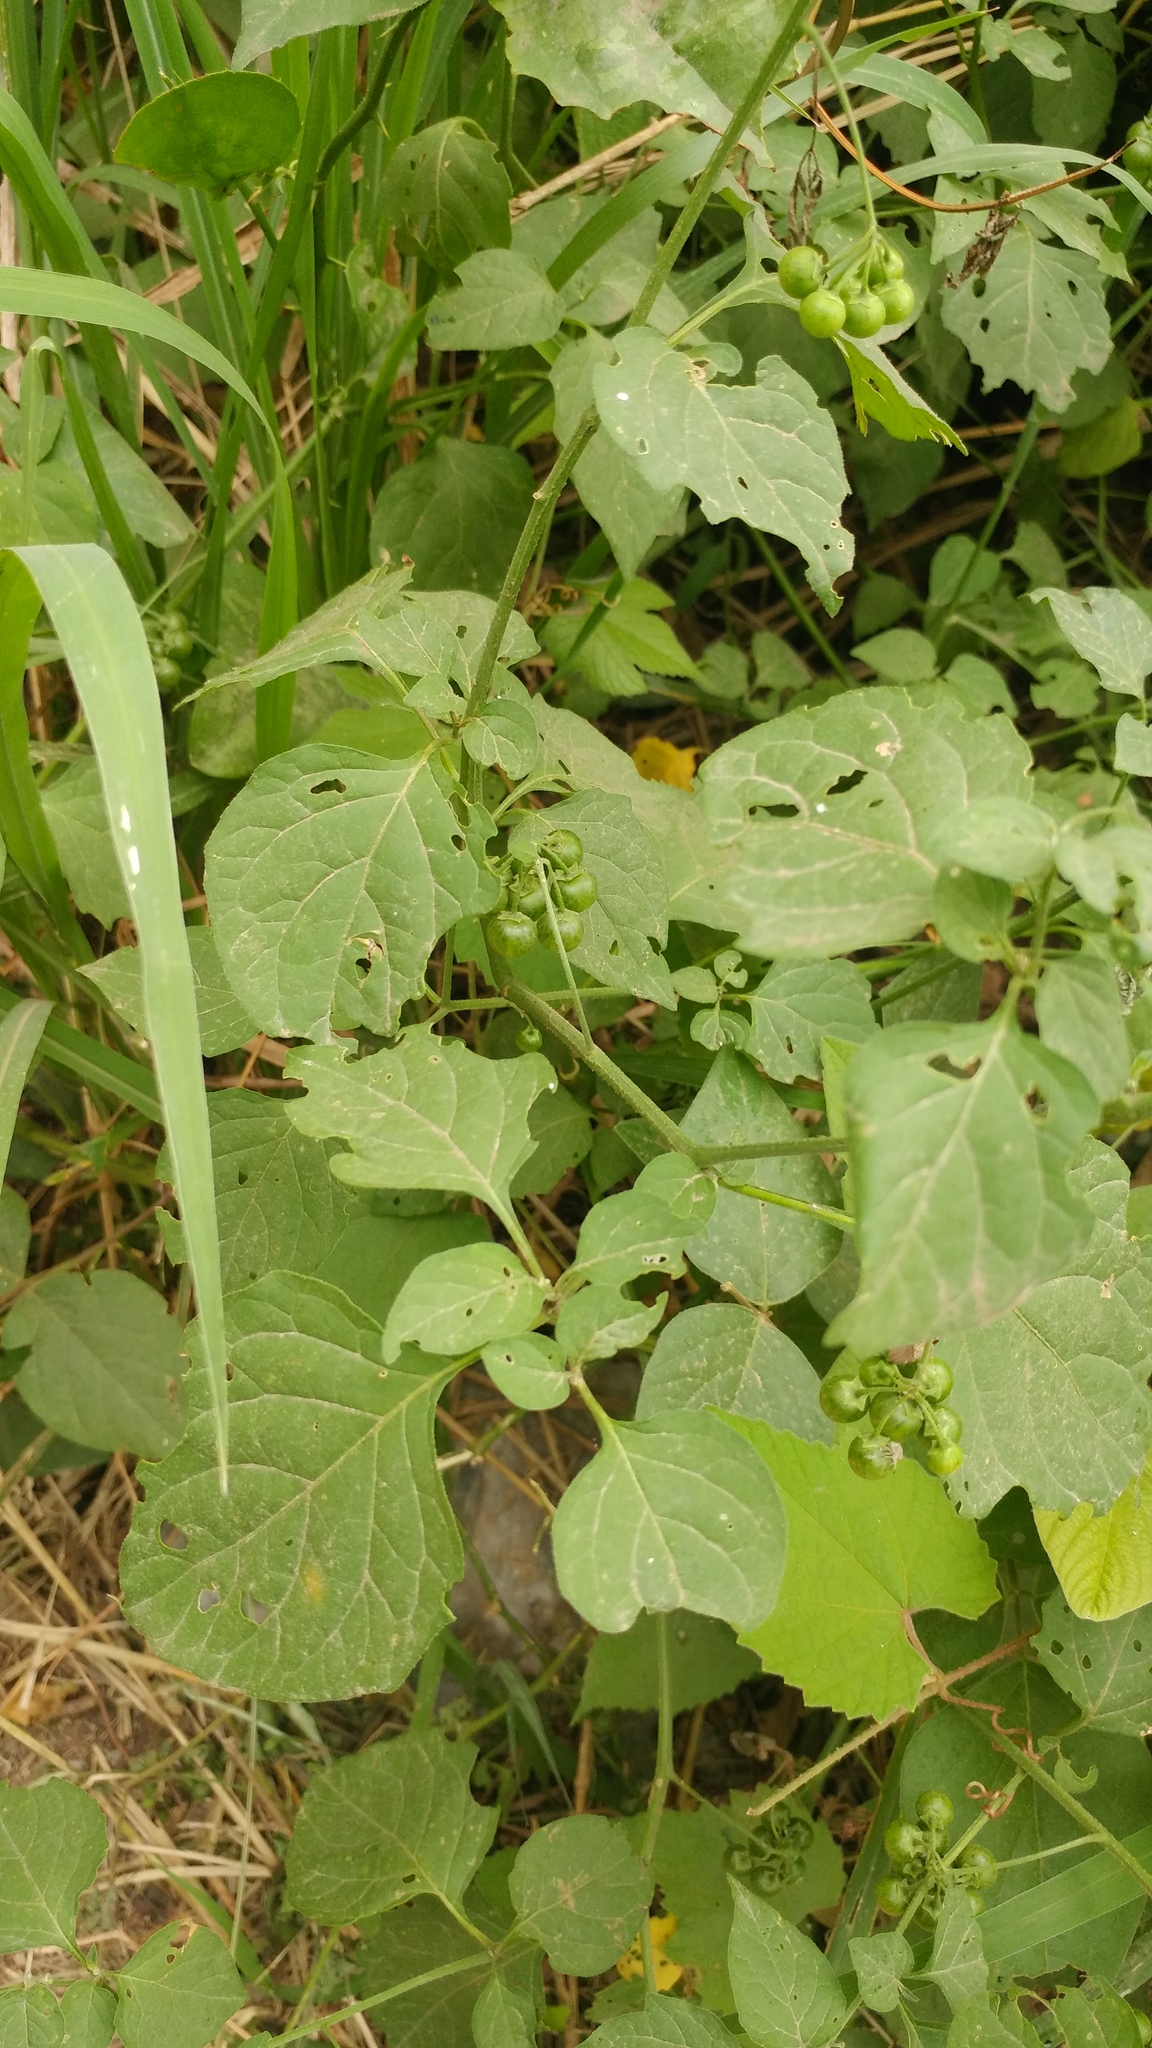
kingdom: Plantae
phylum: Tracheophyta
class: Magnoliopsida
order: Solanales
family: Solanaceae
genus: Solanum
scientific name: Solanum americanum
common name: American black nightshade
